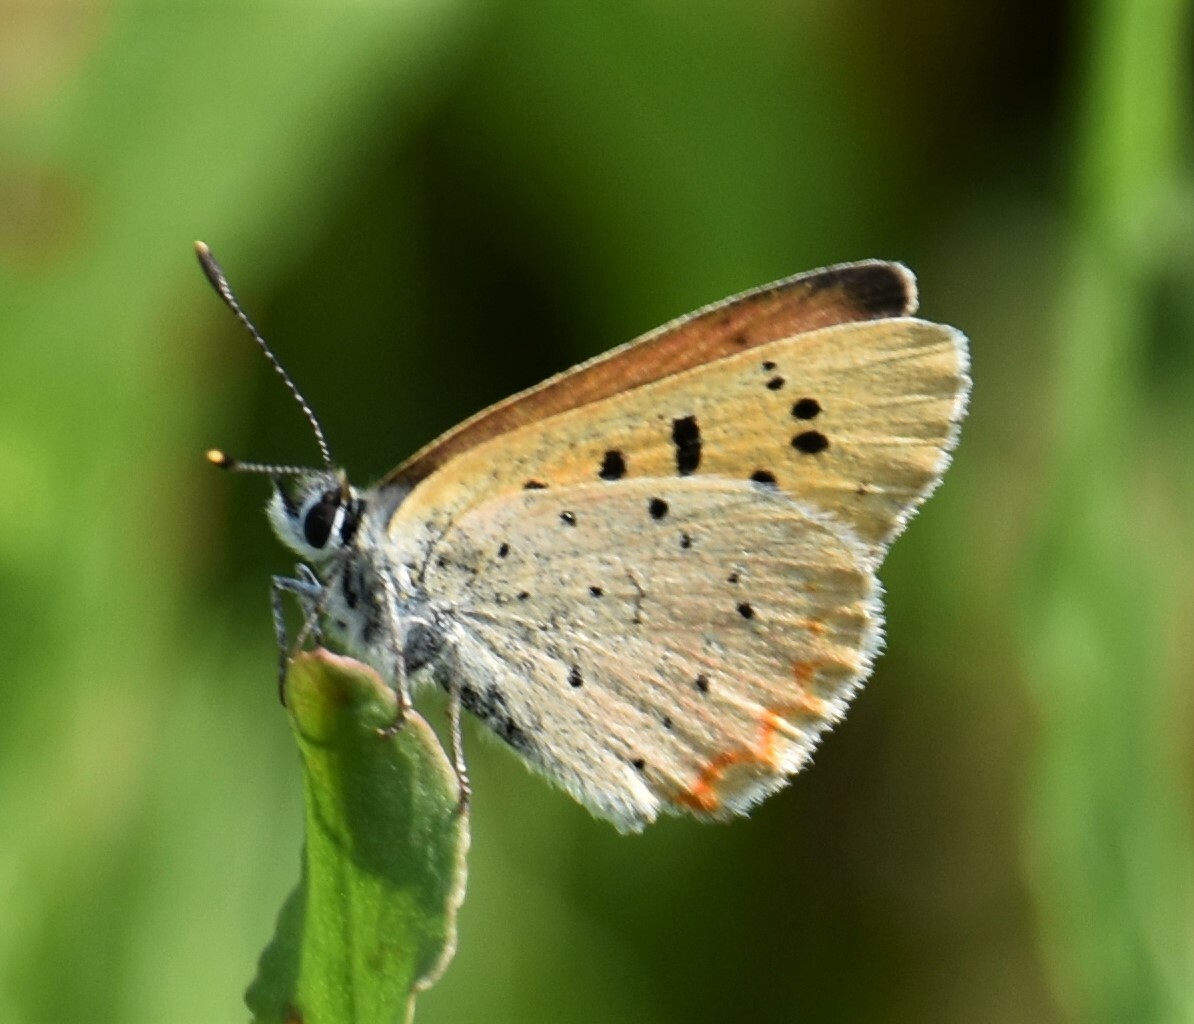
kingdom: Animalia
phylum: Arthropoda
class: Insecta
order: Lepidoptera
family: Lycaenidae
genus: Tharsalea
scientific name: Tharsalea helloides
